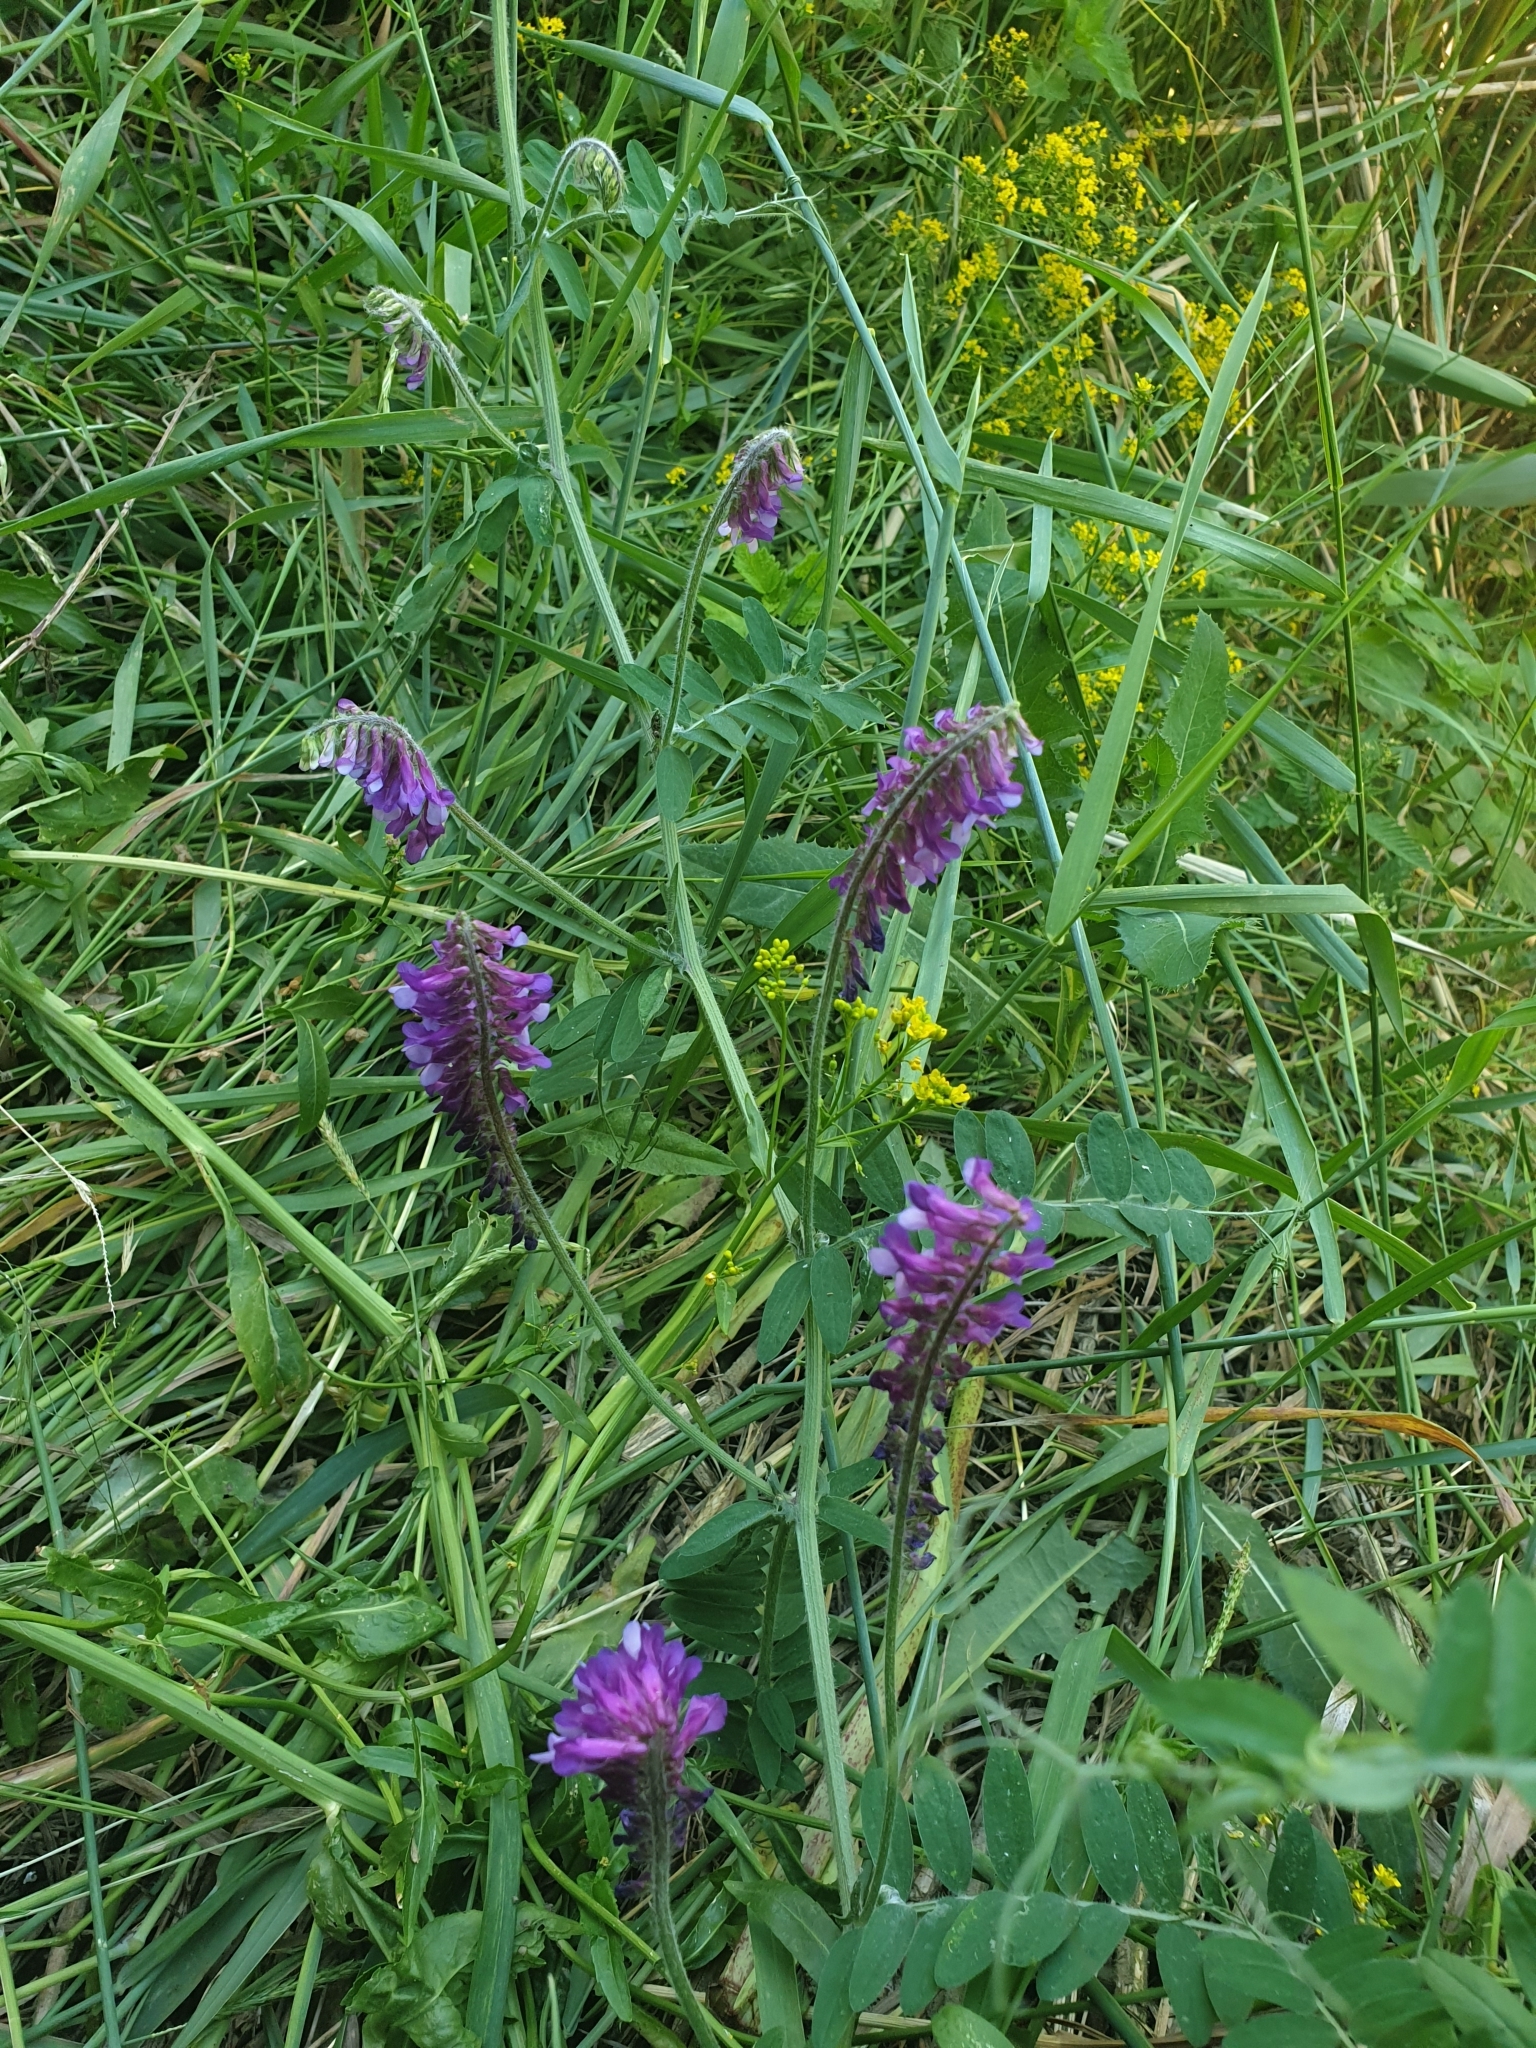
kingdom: Plantae
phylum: Tracheophyta
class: Magnoliopsida
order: Fabales
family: Fabaceae
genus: Vicia
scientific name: Vicia villosa
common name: Fodder vetch
